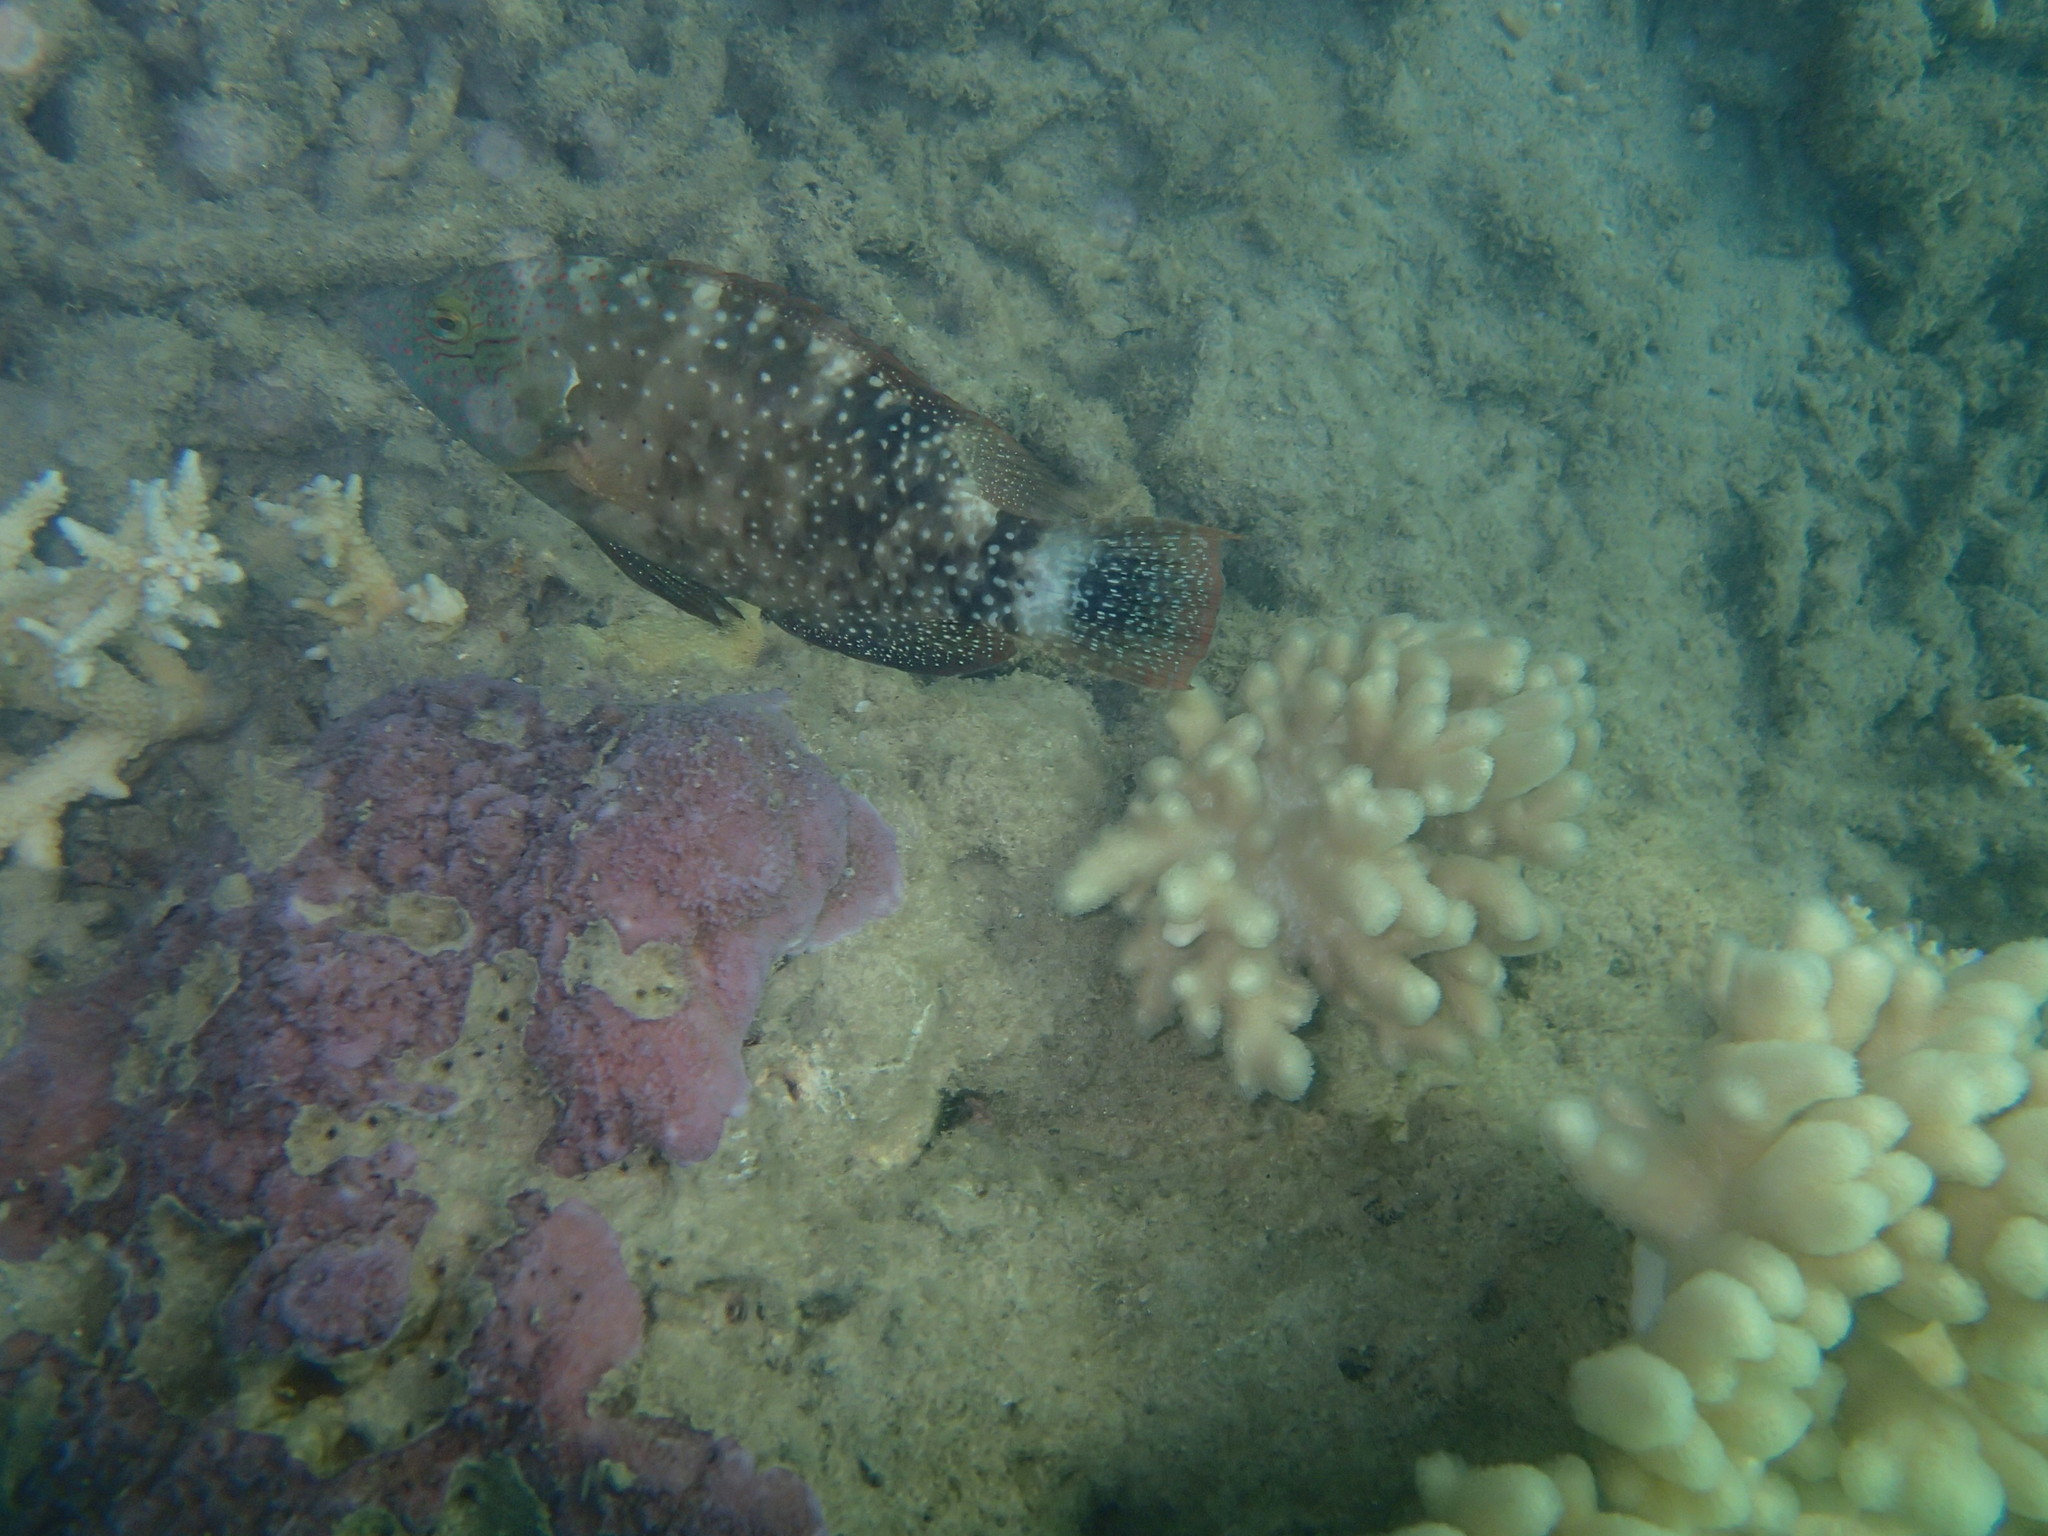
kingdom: Animalia
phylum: Chordata
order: Perciformes
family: Labridae
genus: Cheilinus
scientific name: Cheilinus chlorourus
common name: Floral wrasse
